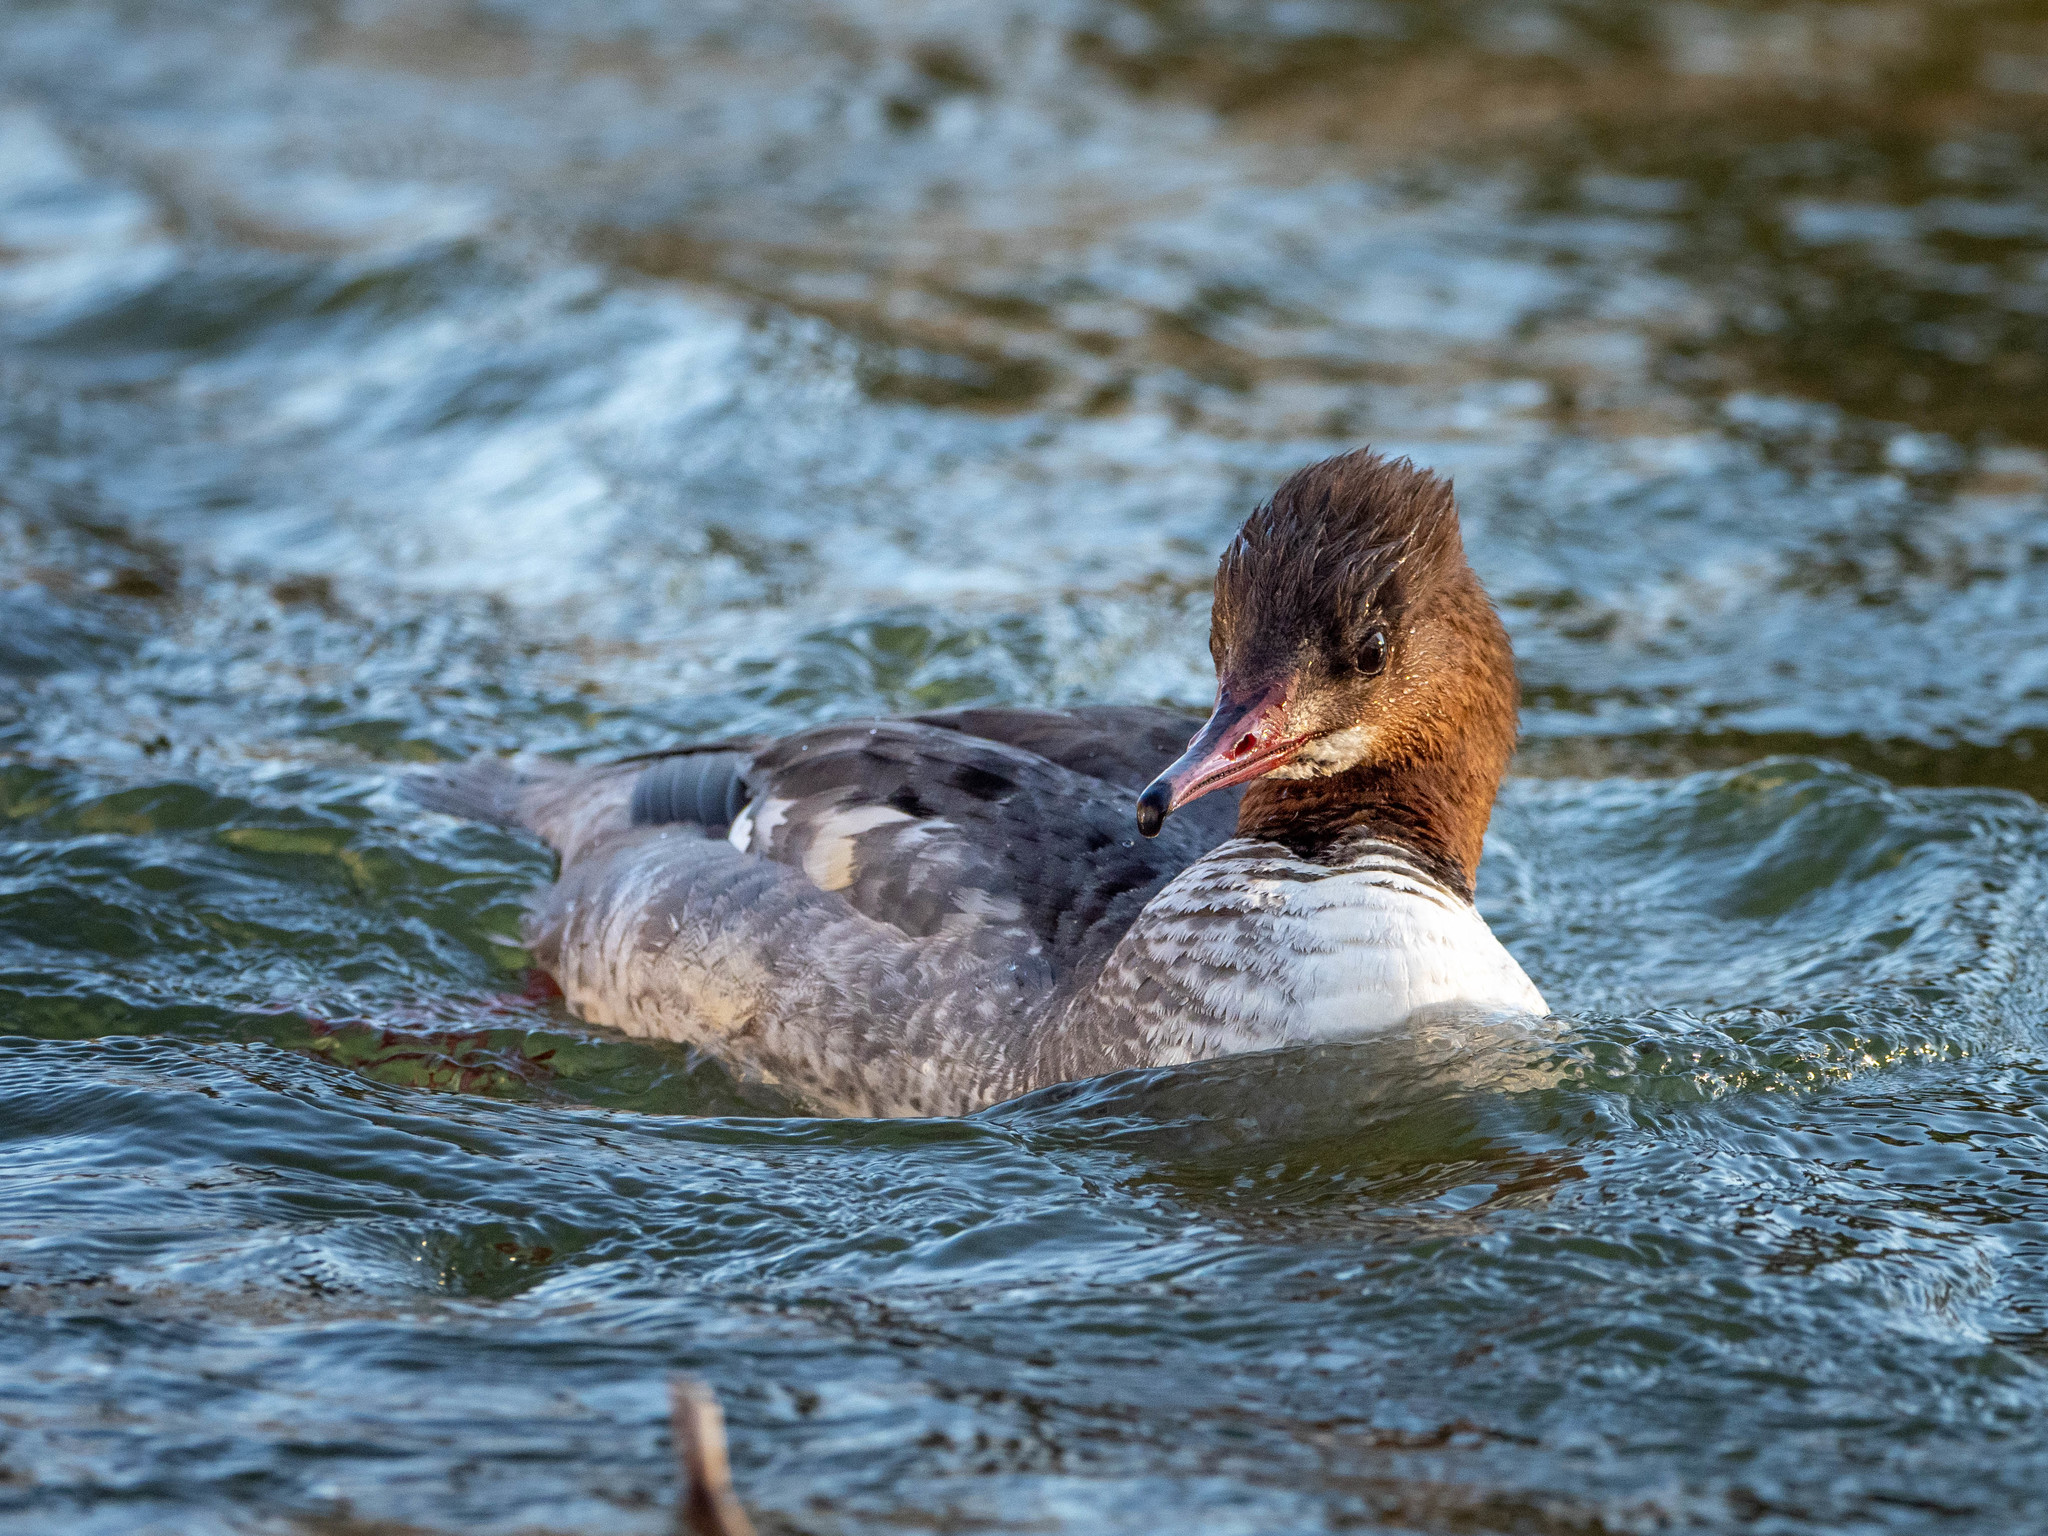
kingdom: Animalia
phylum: Chordata
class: Aves
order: Anseriformes
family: Anatidae
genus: Mergus
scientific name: Mergus merganser
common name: Common merganser
